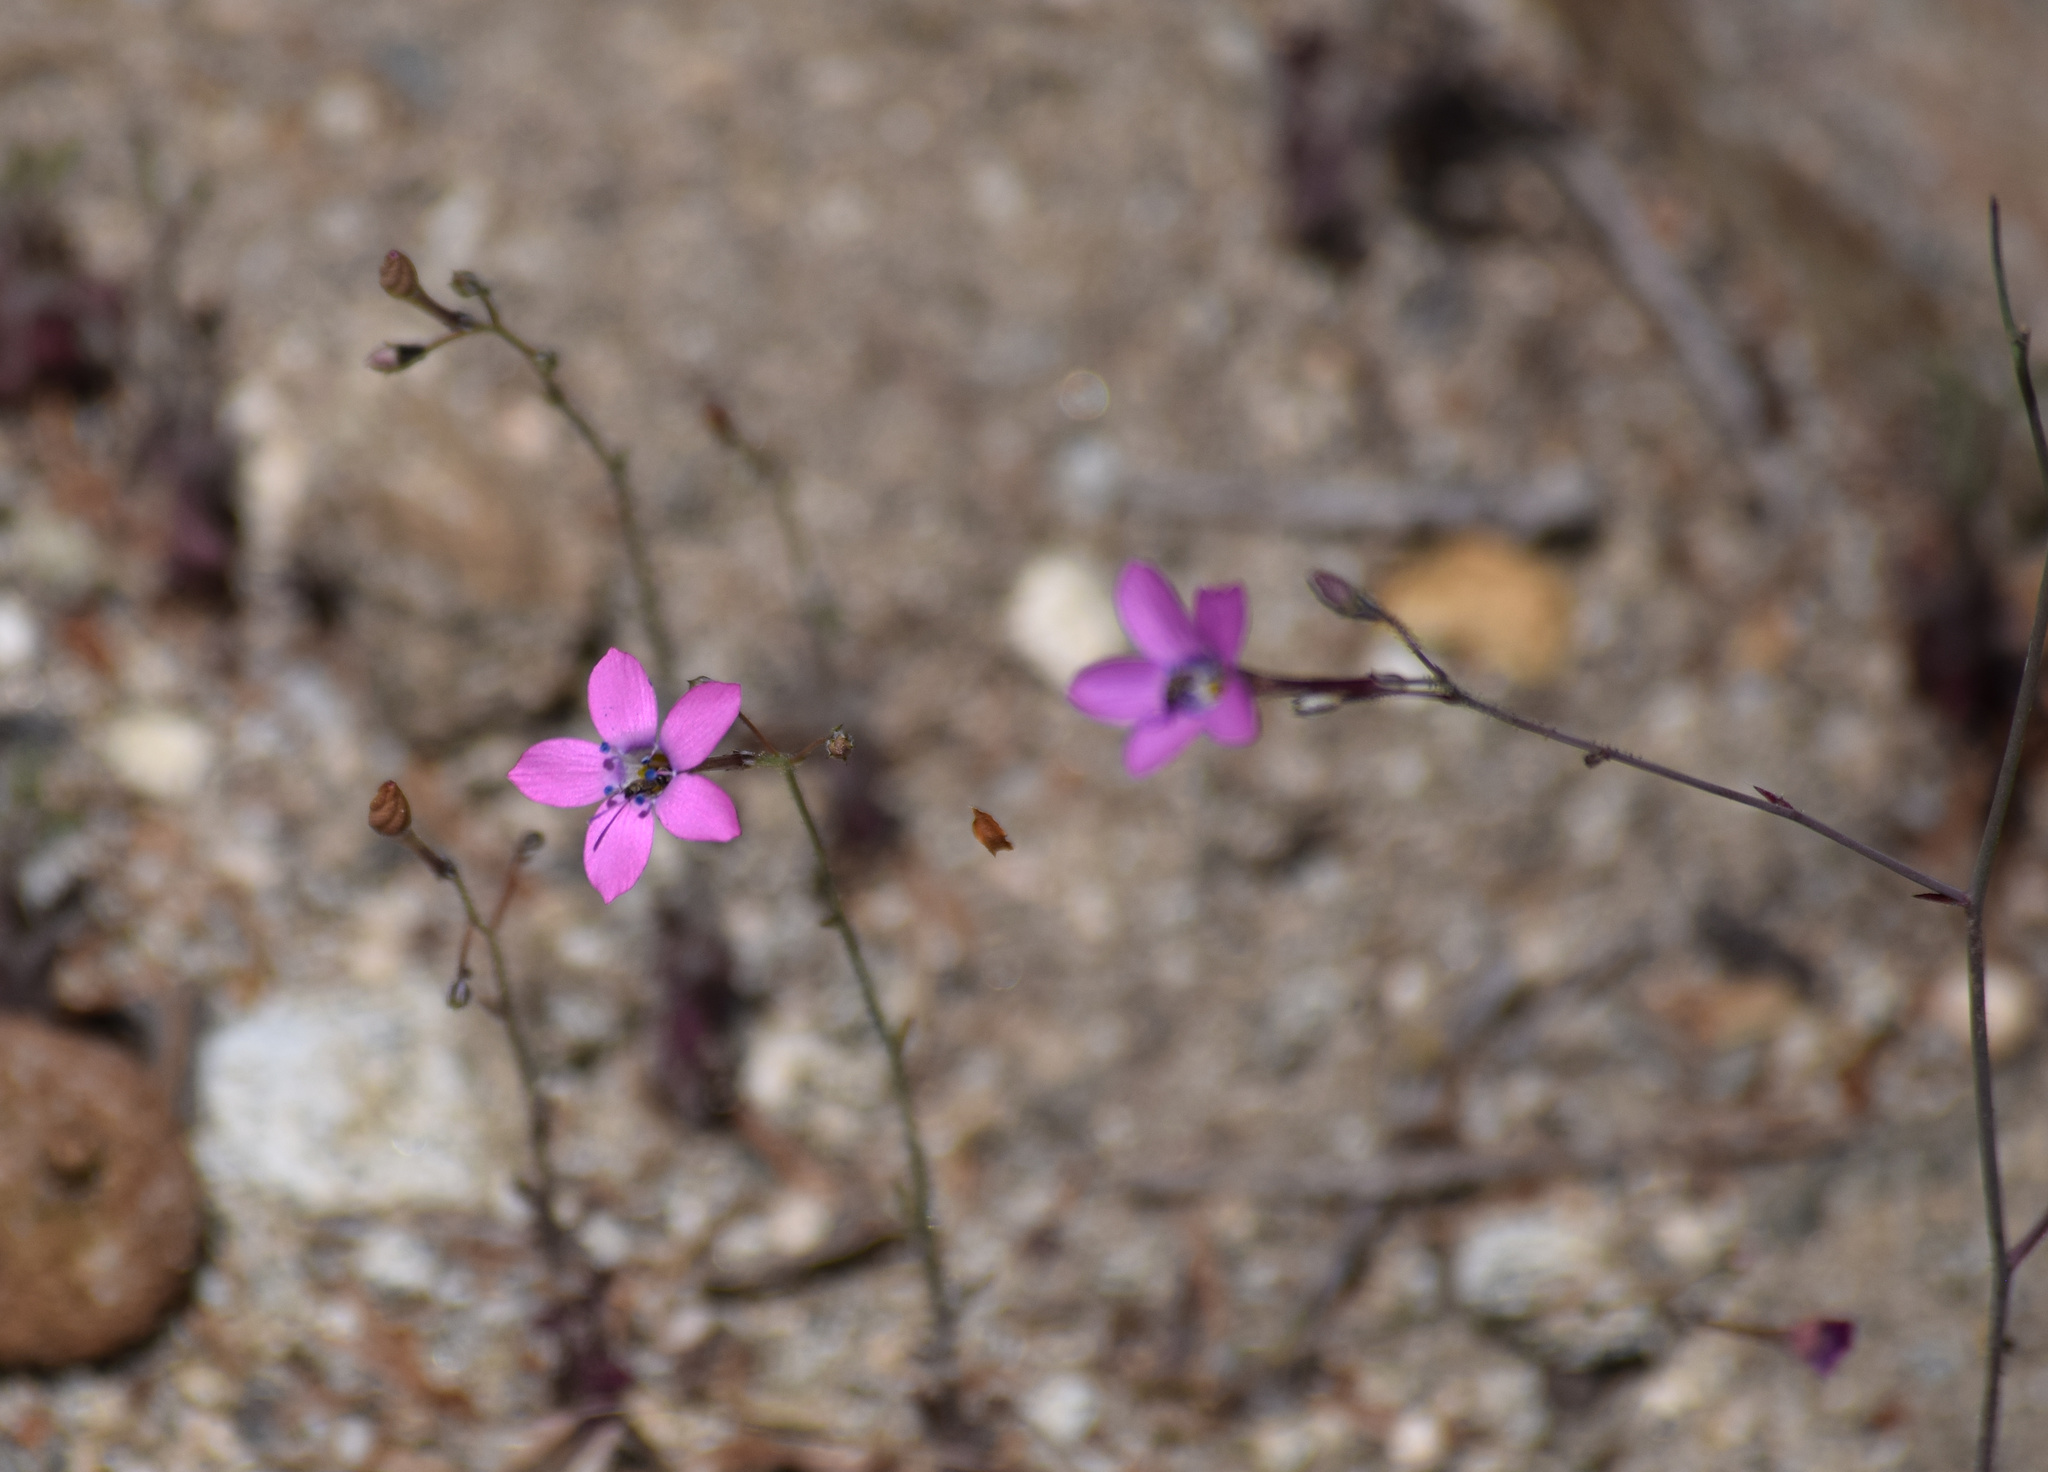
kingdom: Plantae
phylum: Tracheophyta
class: Magnoliopsida
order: Ericales
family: Polemoniaceae
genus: Saltugilia
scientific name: Saltugilia splendens
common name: Grinnell's gilia
